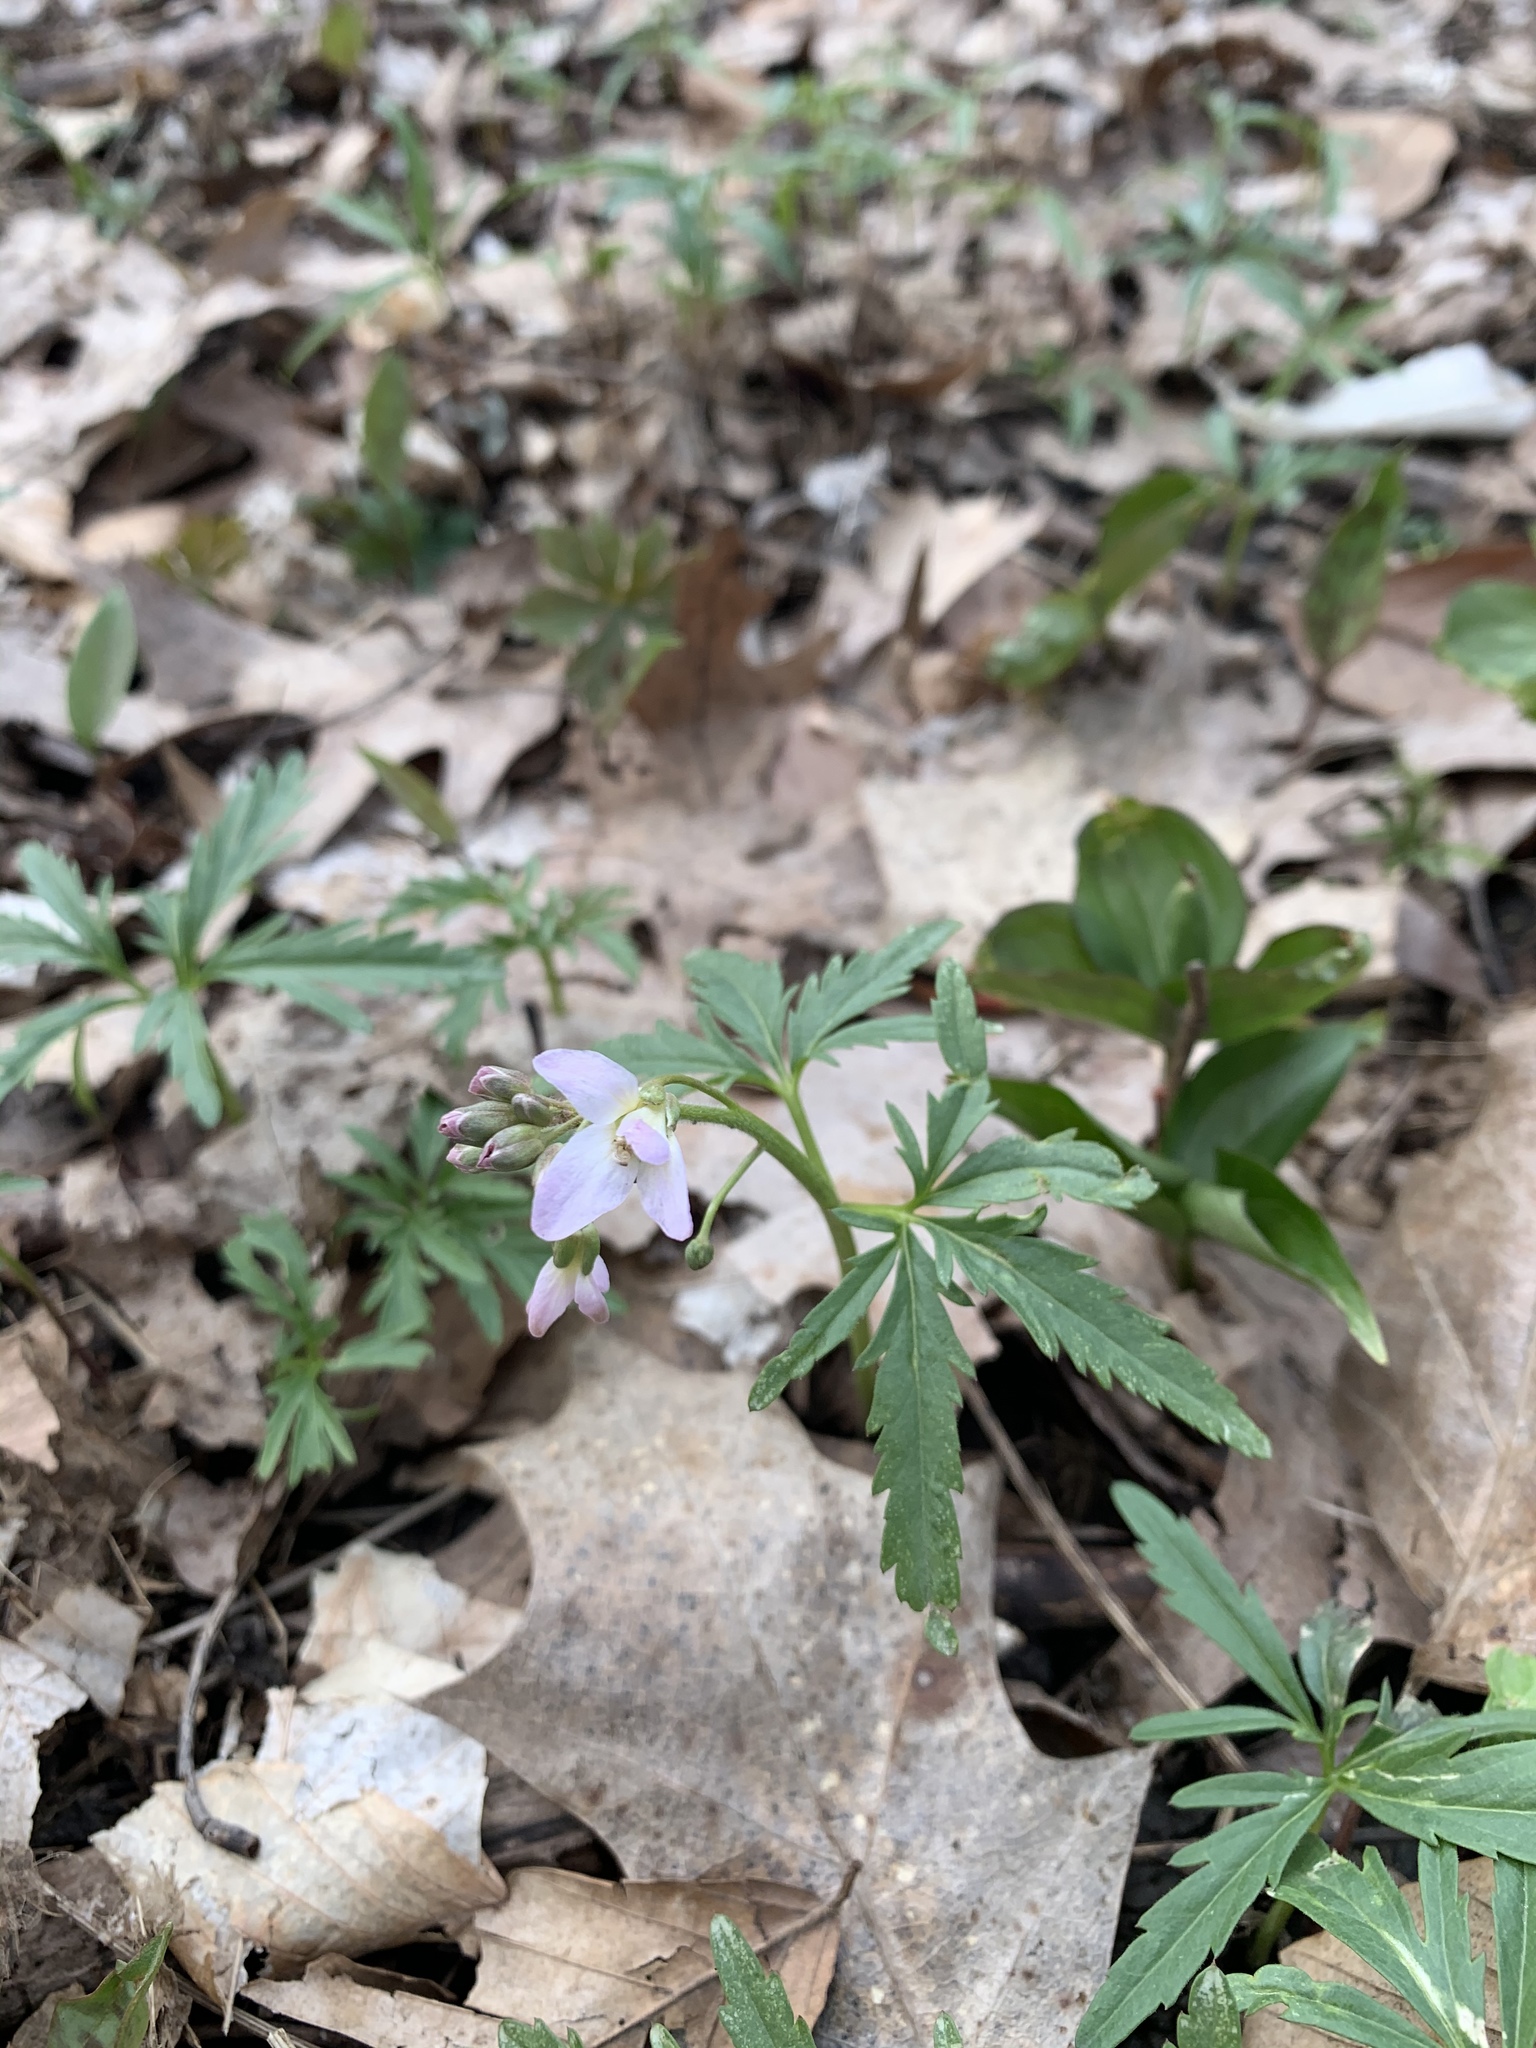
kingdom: Plantae
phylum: Tracheophyta
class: Magnoliopsida
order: Brassicales
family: Brassicaceae
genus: Cardamine
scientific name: Cardamine concatenata
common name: Cut-leaf toothcup
